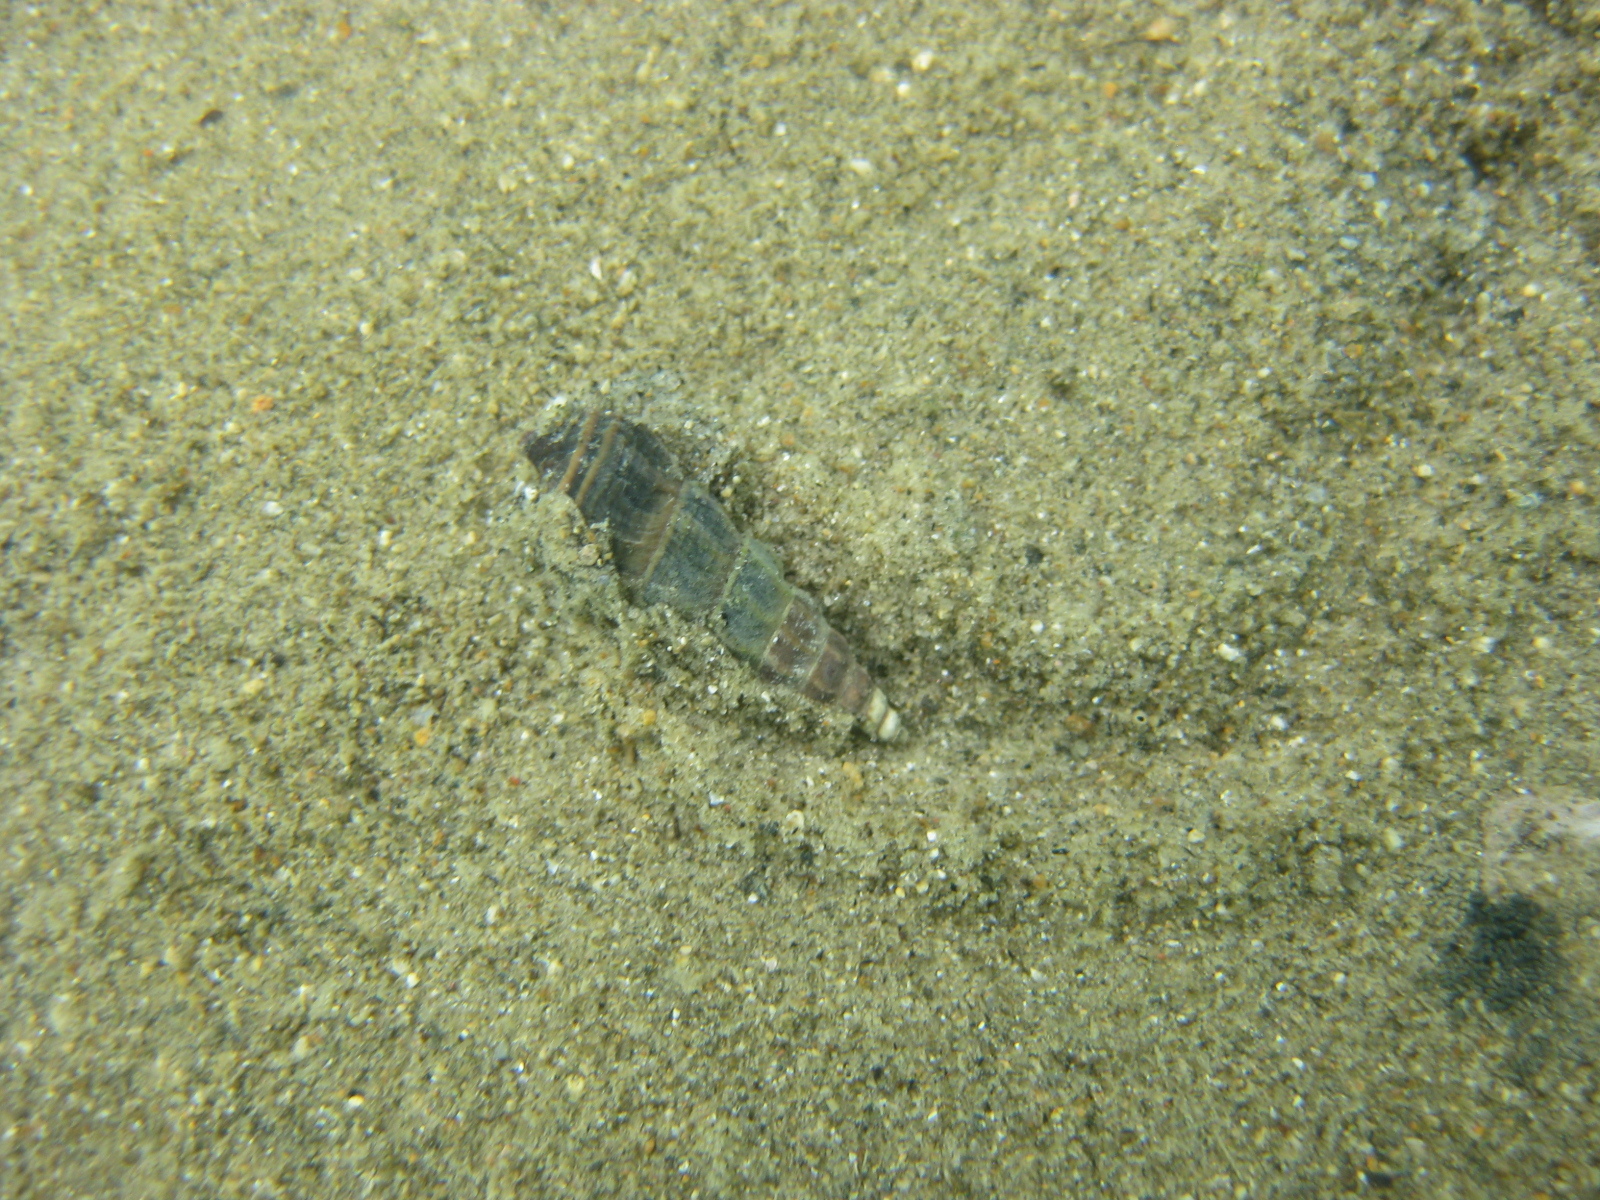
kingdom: Animalia
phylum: Mollusca
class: Gastropoda
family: Batillariidae
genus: Zeacumantus
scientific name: Zeacumantus lutulentus
